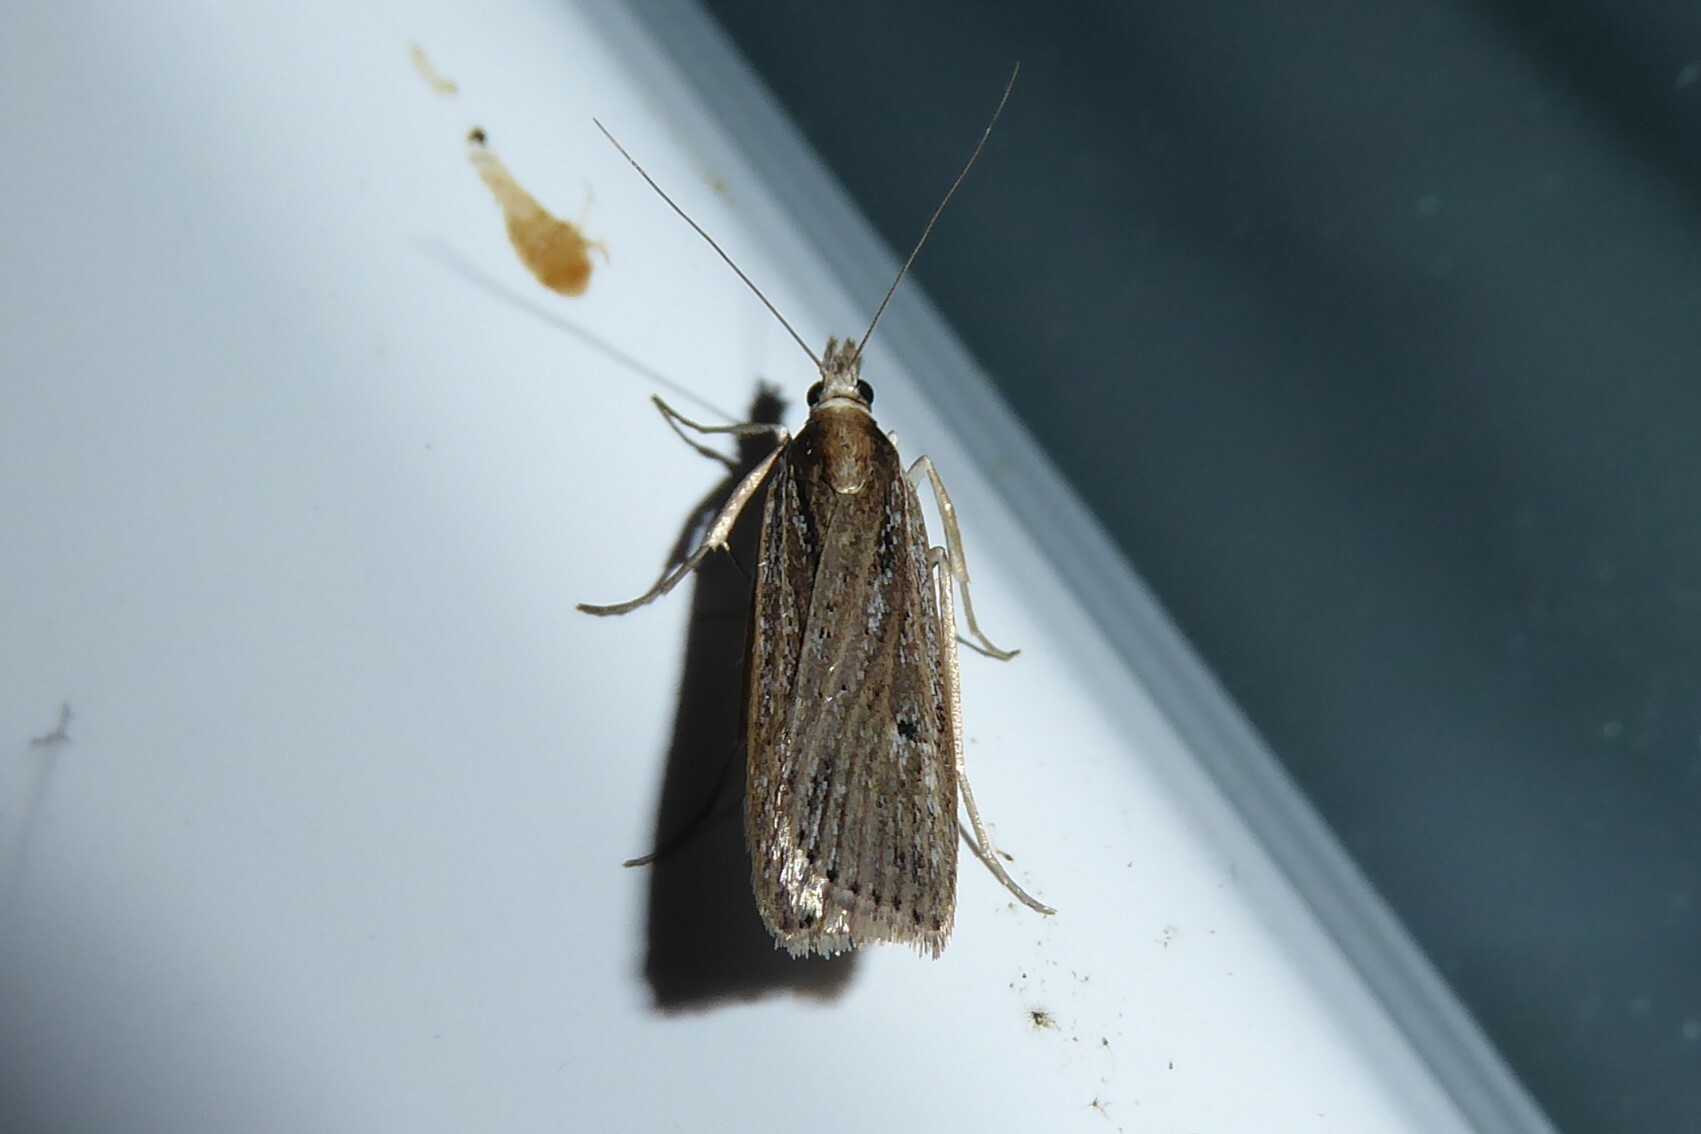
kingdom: Animalia
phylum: Arthropoda
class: Insecta
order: Lepidoptera
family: Crambidae
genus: Eudonia
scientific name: Eudonia sabulosella
